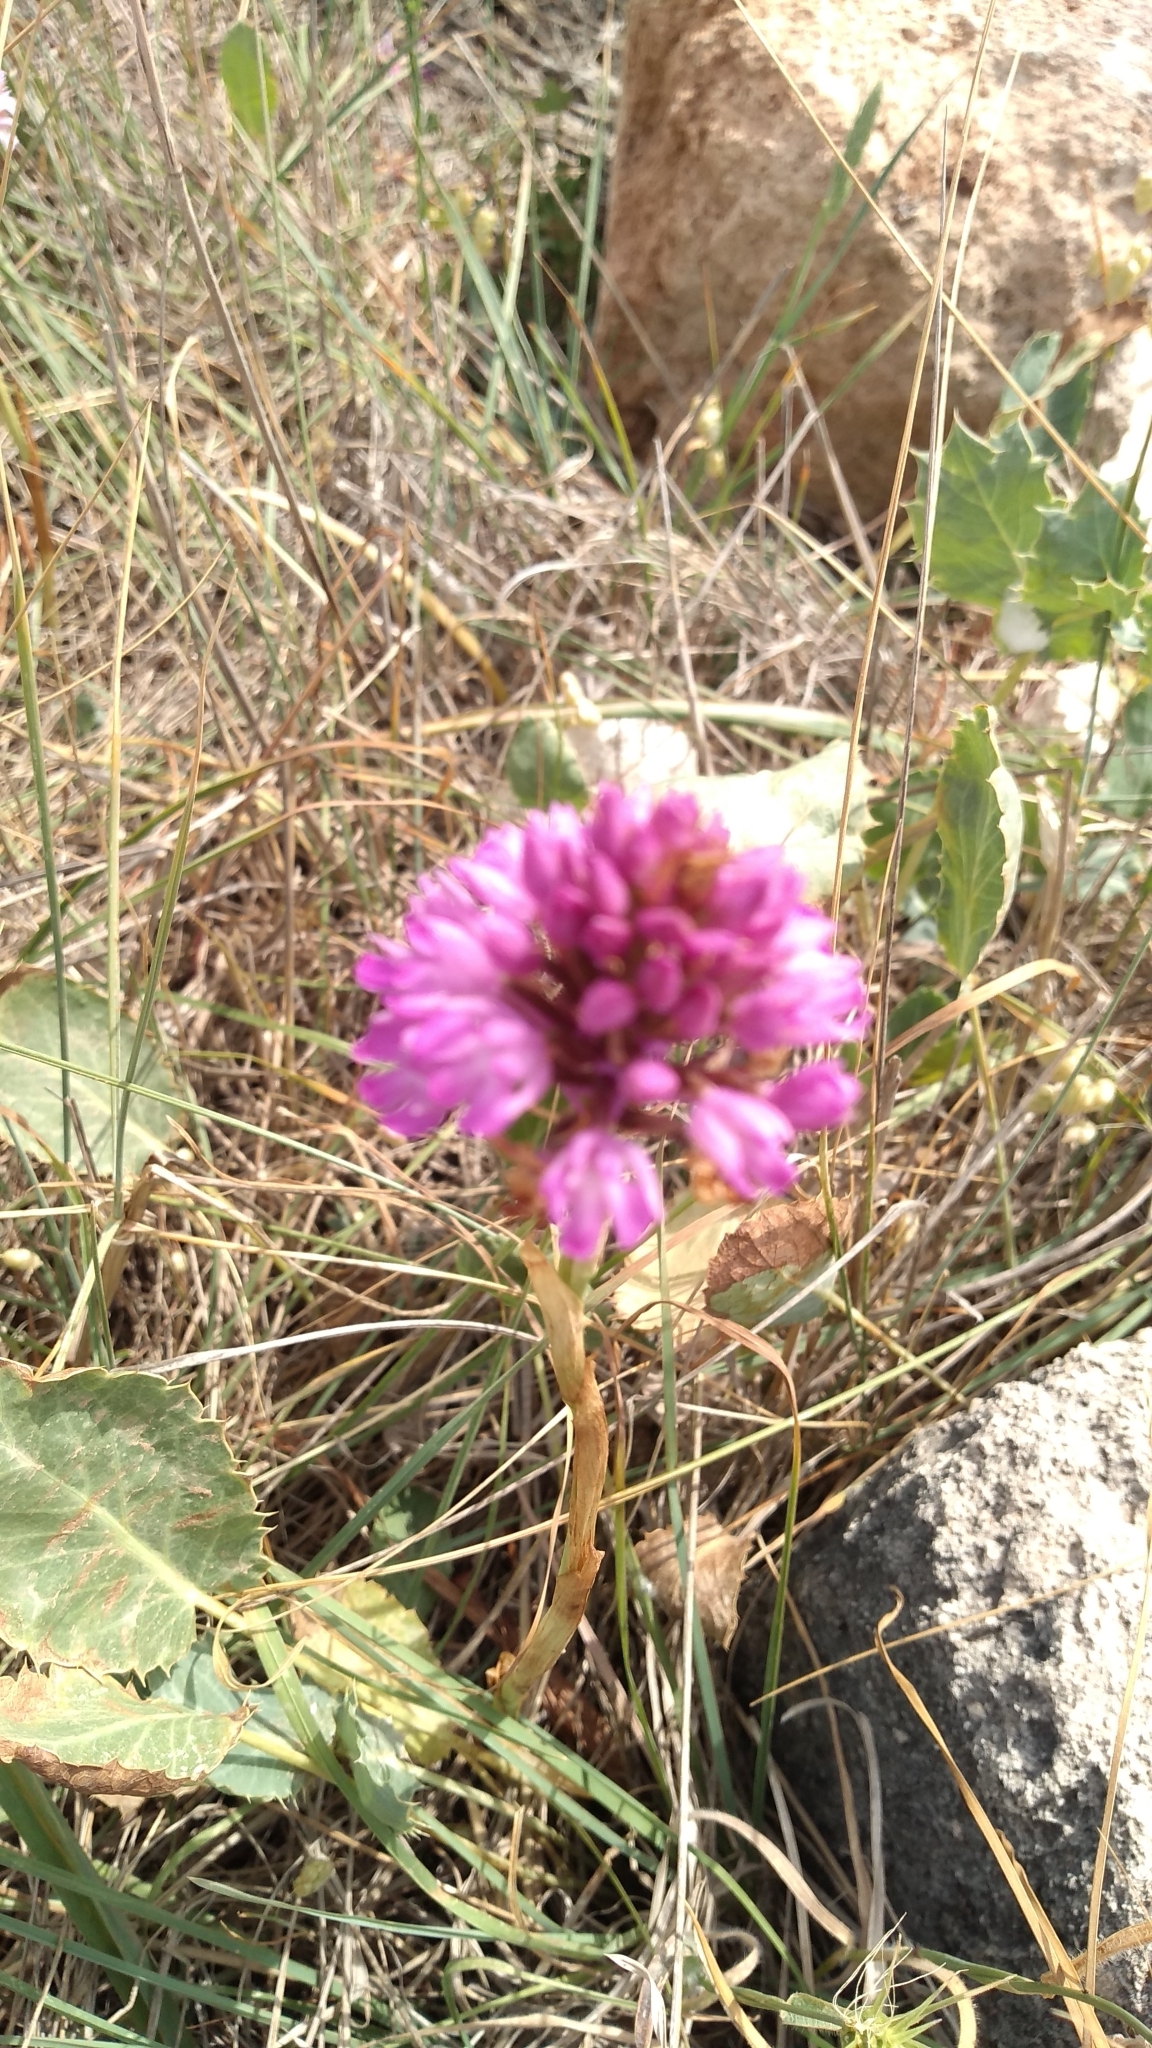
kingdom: Plantae
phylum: Tracheophyta
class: Liliopsida
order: Asparagales
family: Orchidaceae
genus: Anacamptis
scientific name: Anacamptis pyramidalis
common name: Pyramidal orchid
